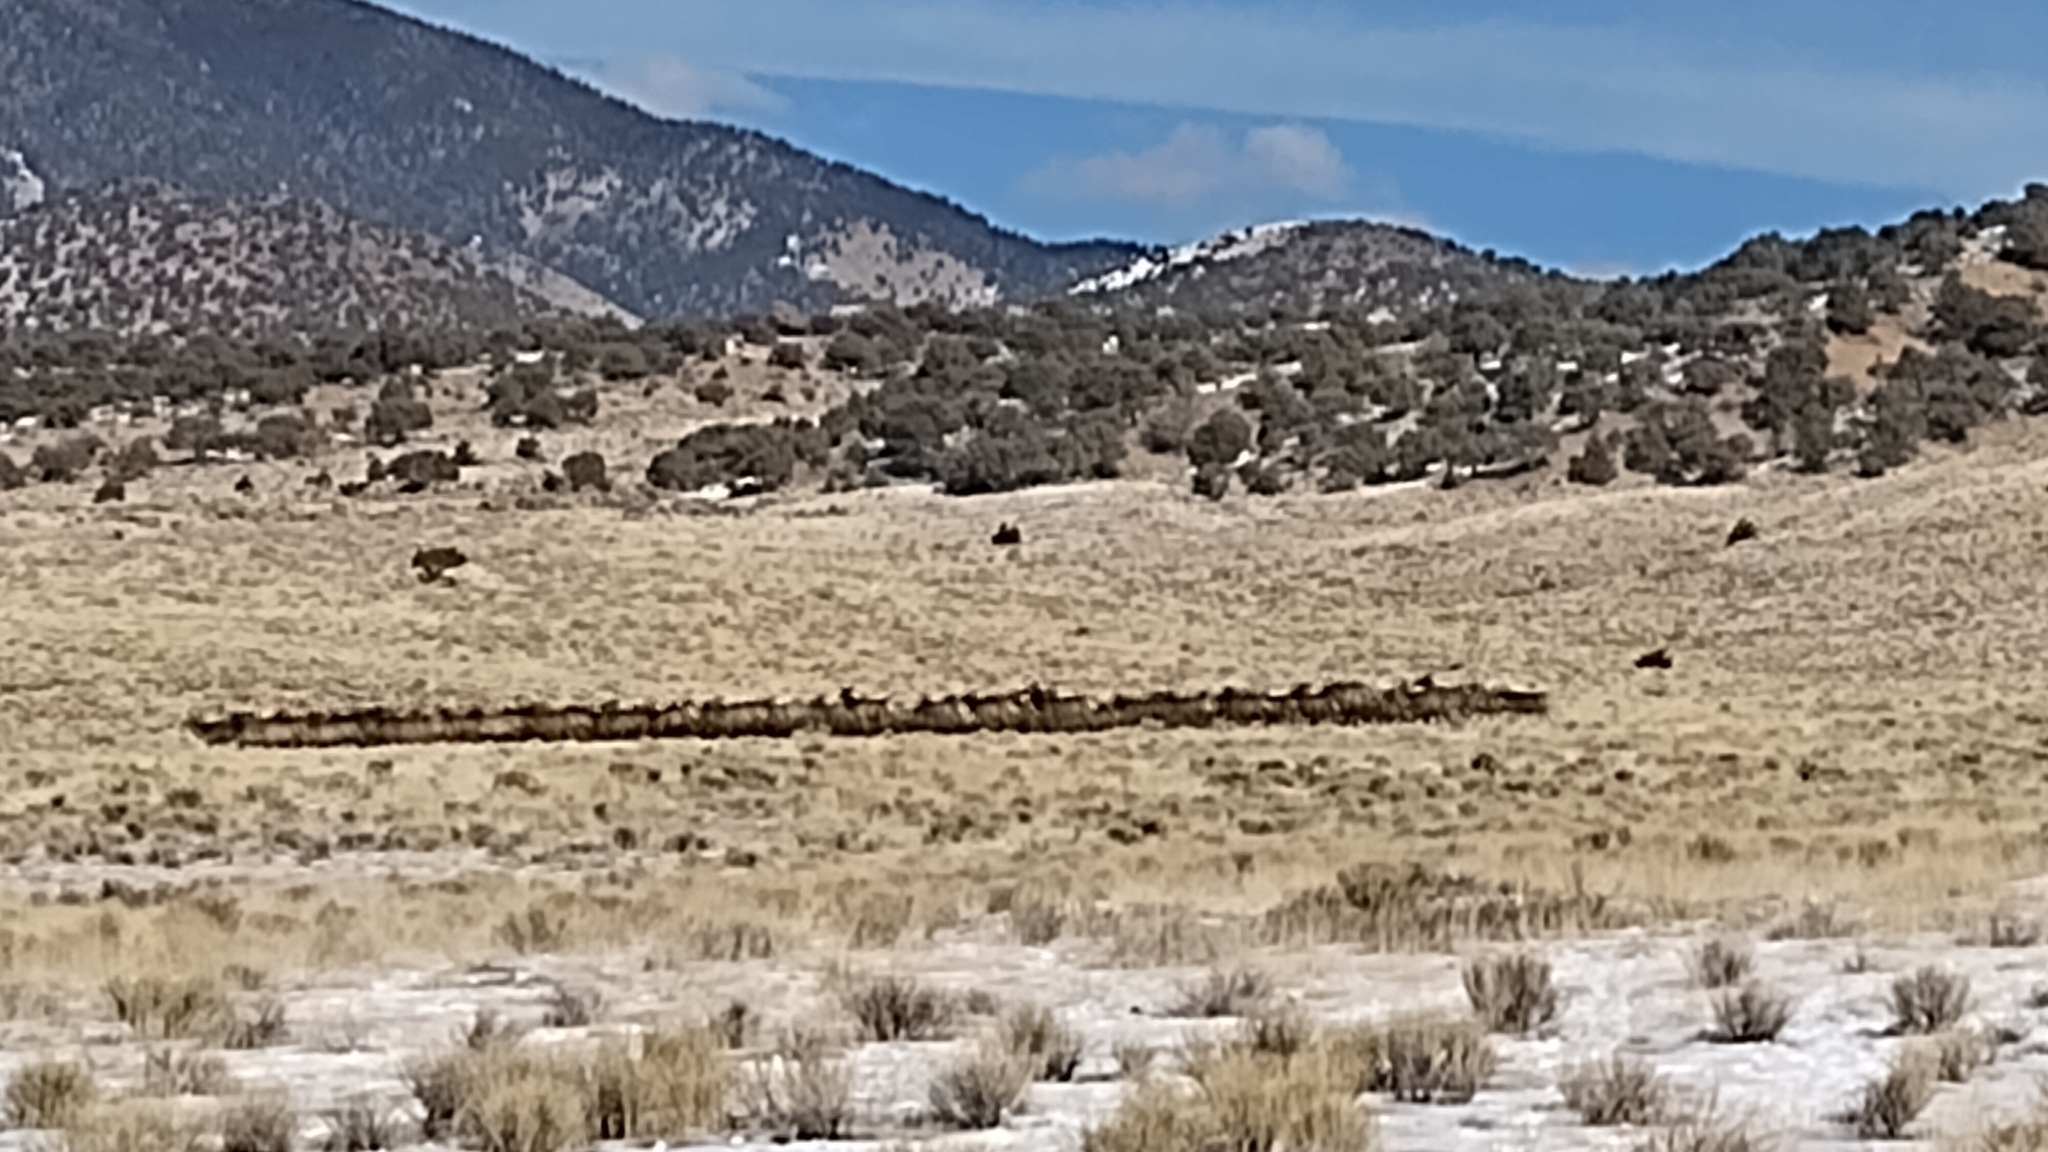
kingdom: Animalia
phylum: Chordata
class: Mammalia
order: Artiodactyla
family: Cervidae
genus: Cervus
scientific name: Cervus elaphus
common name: Red deer
